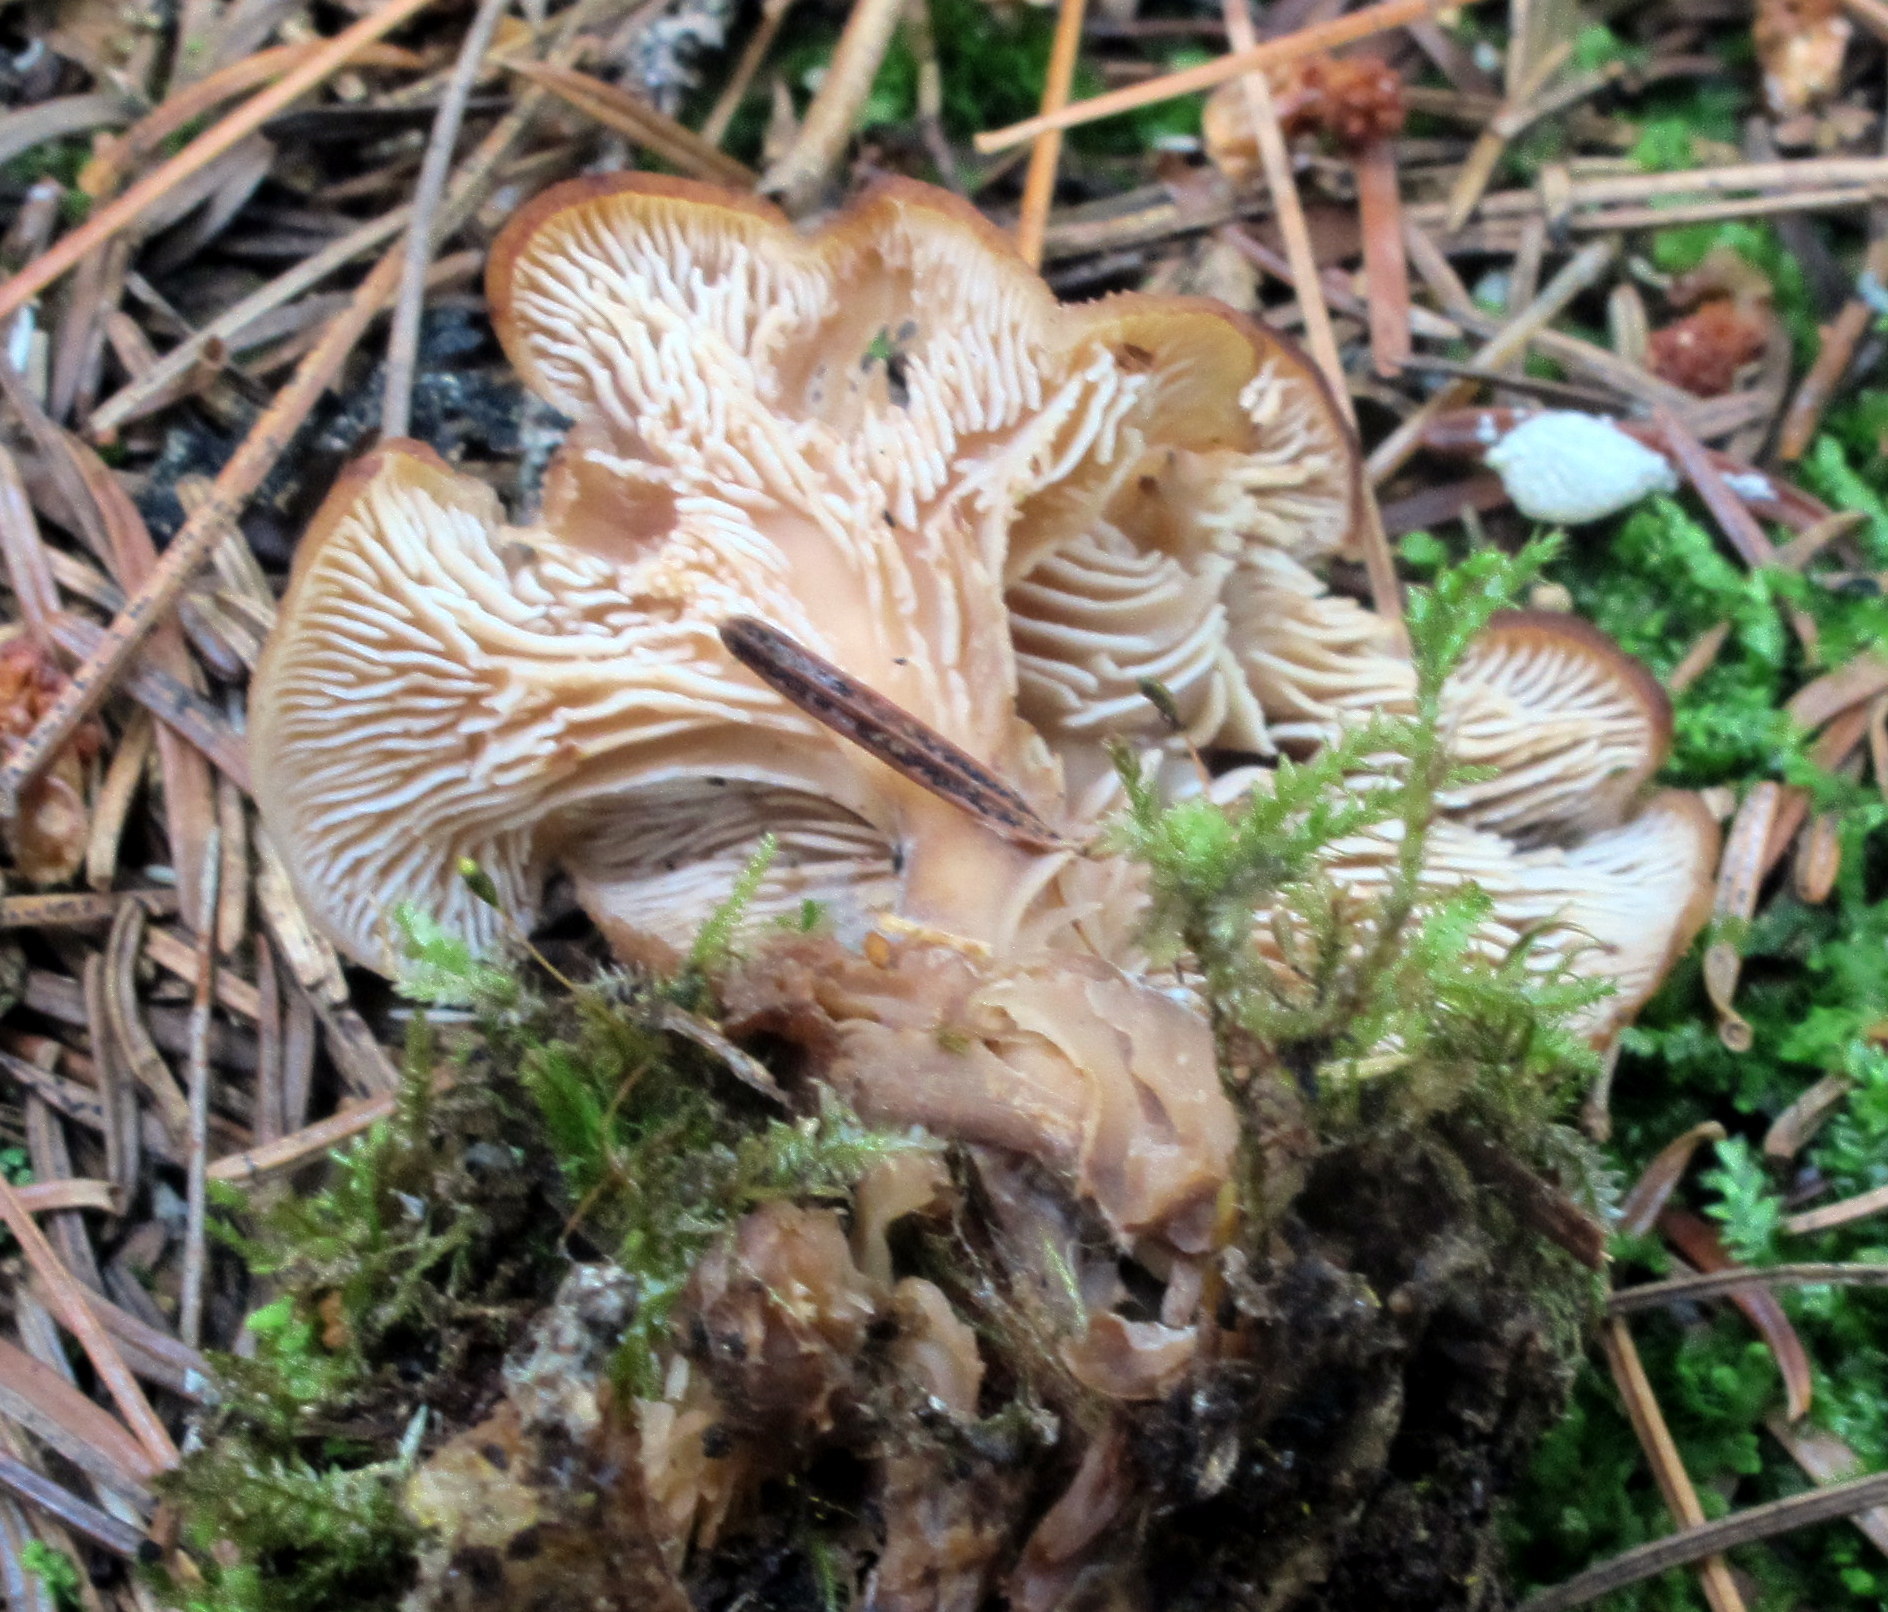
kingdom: Fungi
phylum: Basidiomycota
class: Agaricomycetes
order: Russulales
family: Auriscalpiaceae
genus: Lentinellus
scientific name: Lentinellus micheneri
